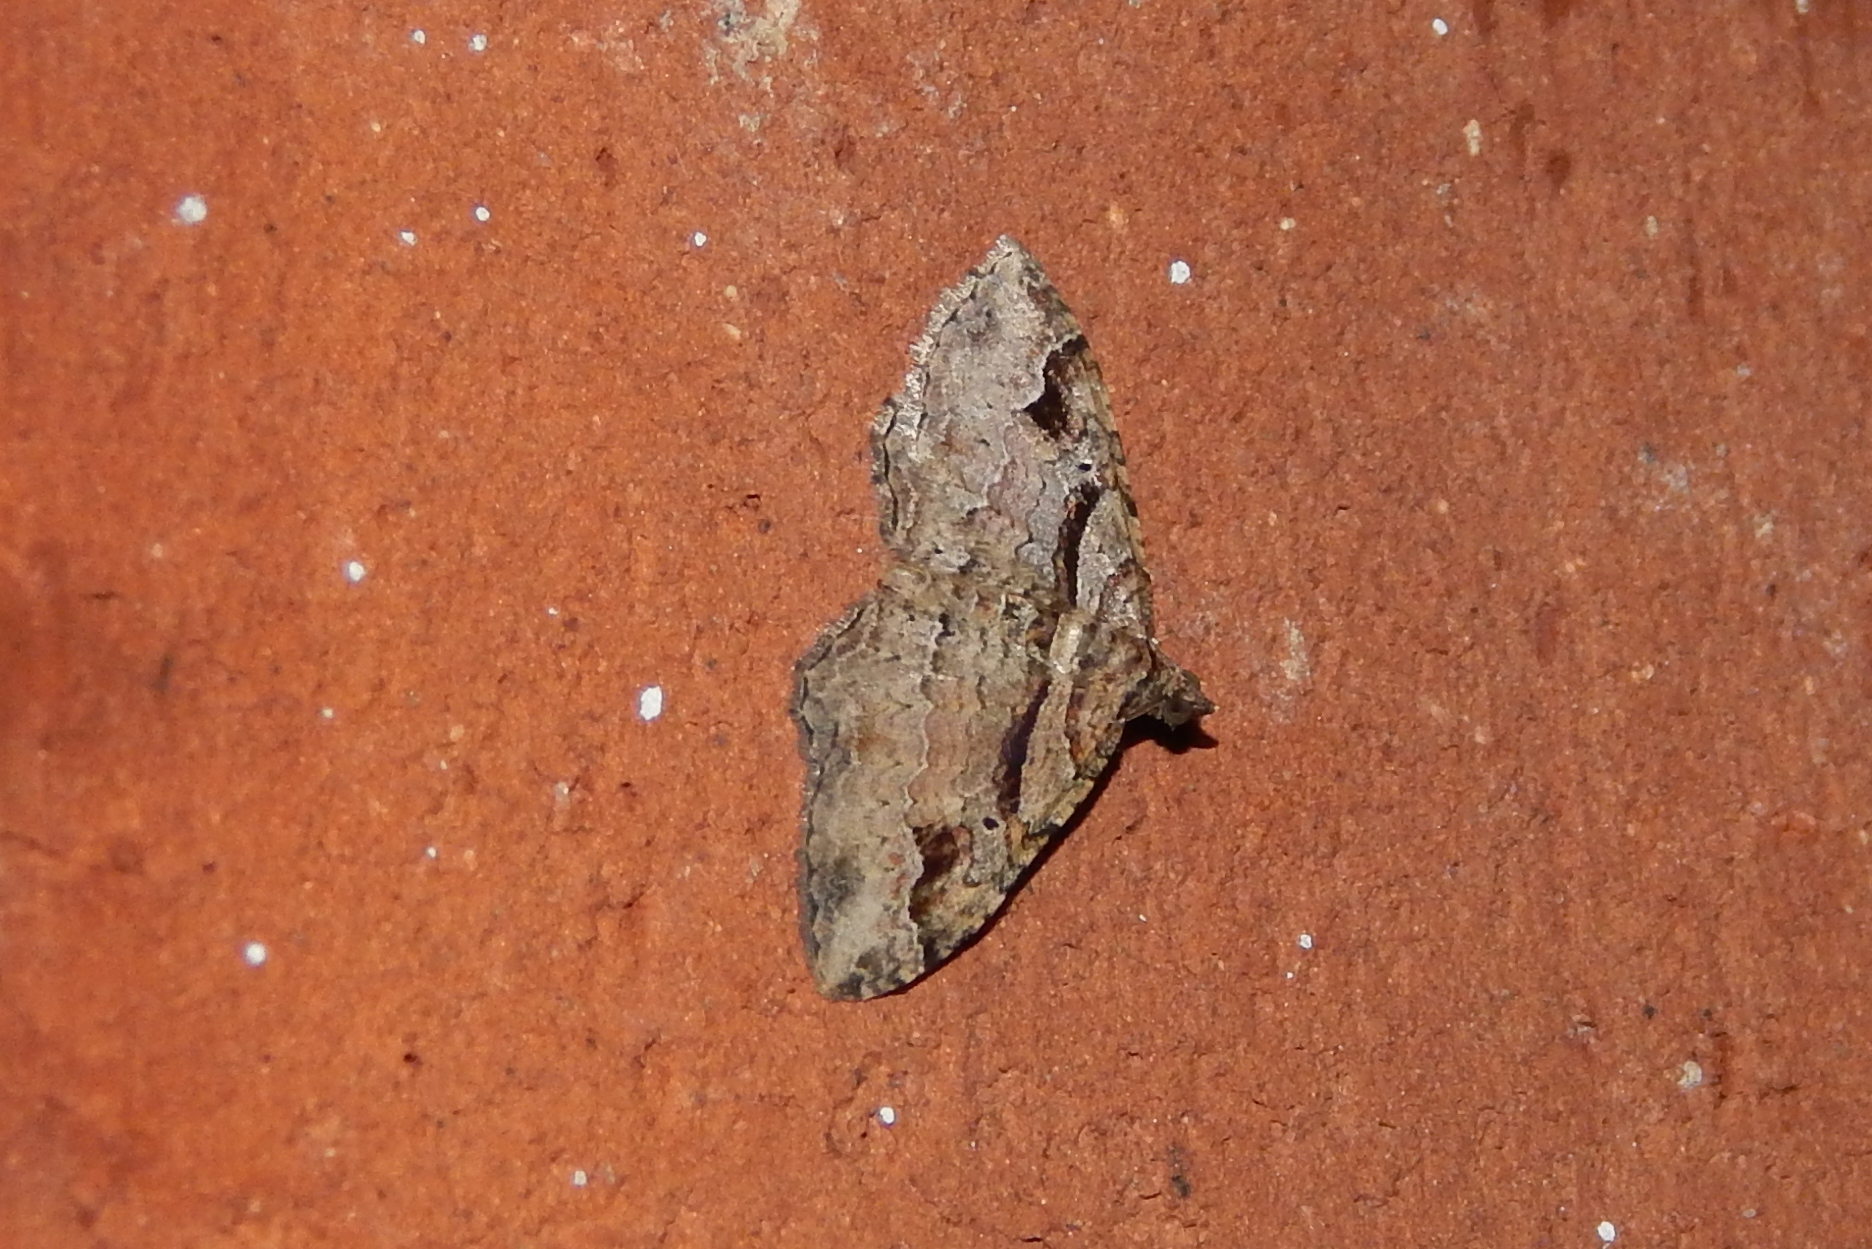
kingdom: Animalia
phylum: Arthropoda
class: Insecta
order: Lepidoptera
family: Geometridae
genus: Costaconvexa
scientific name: Costaconvexa centrostrigaria
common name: Bent-line carpet
